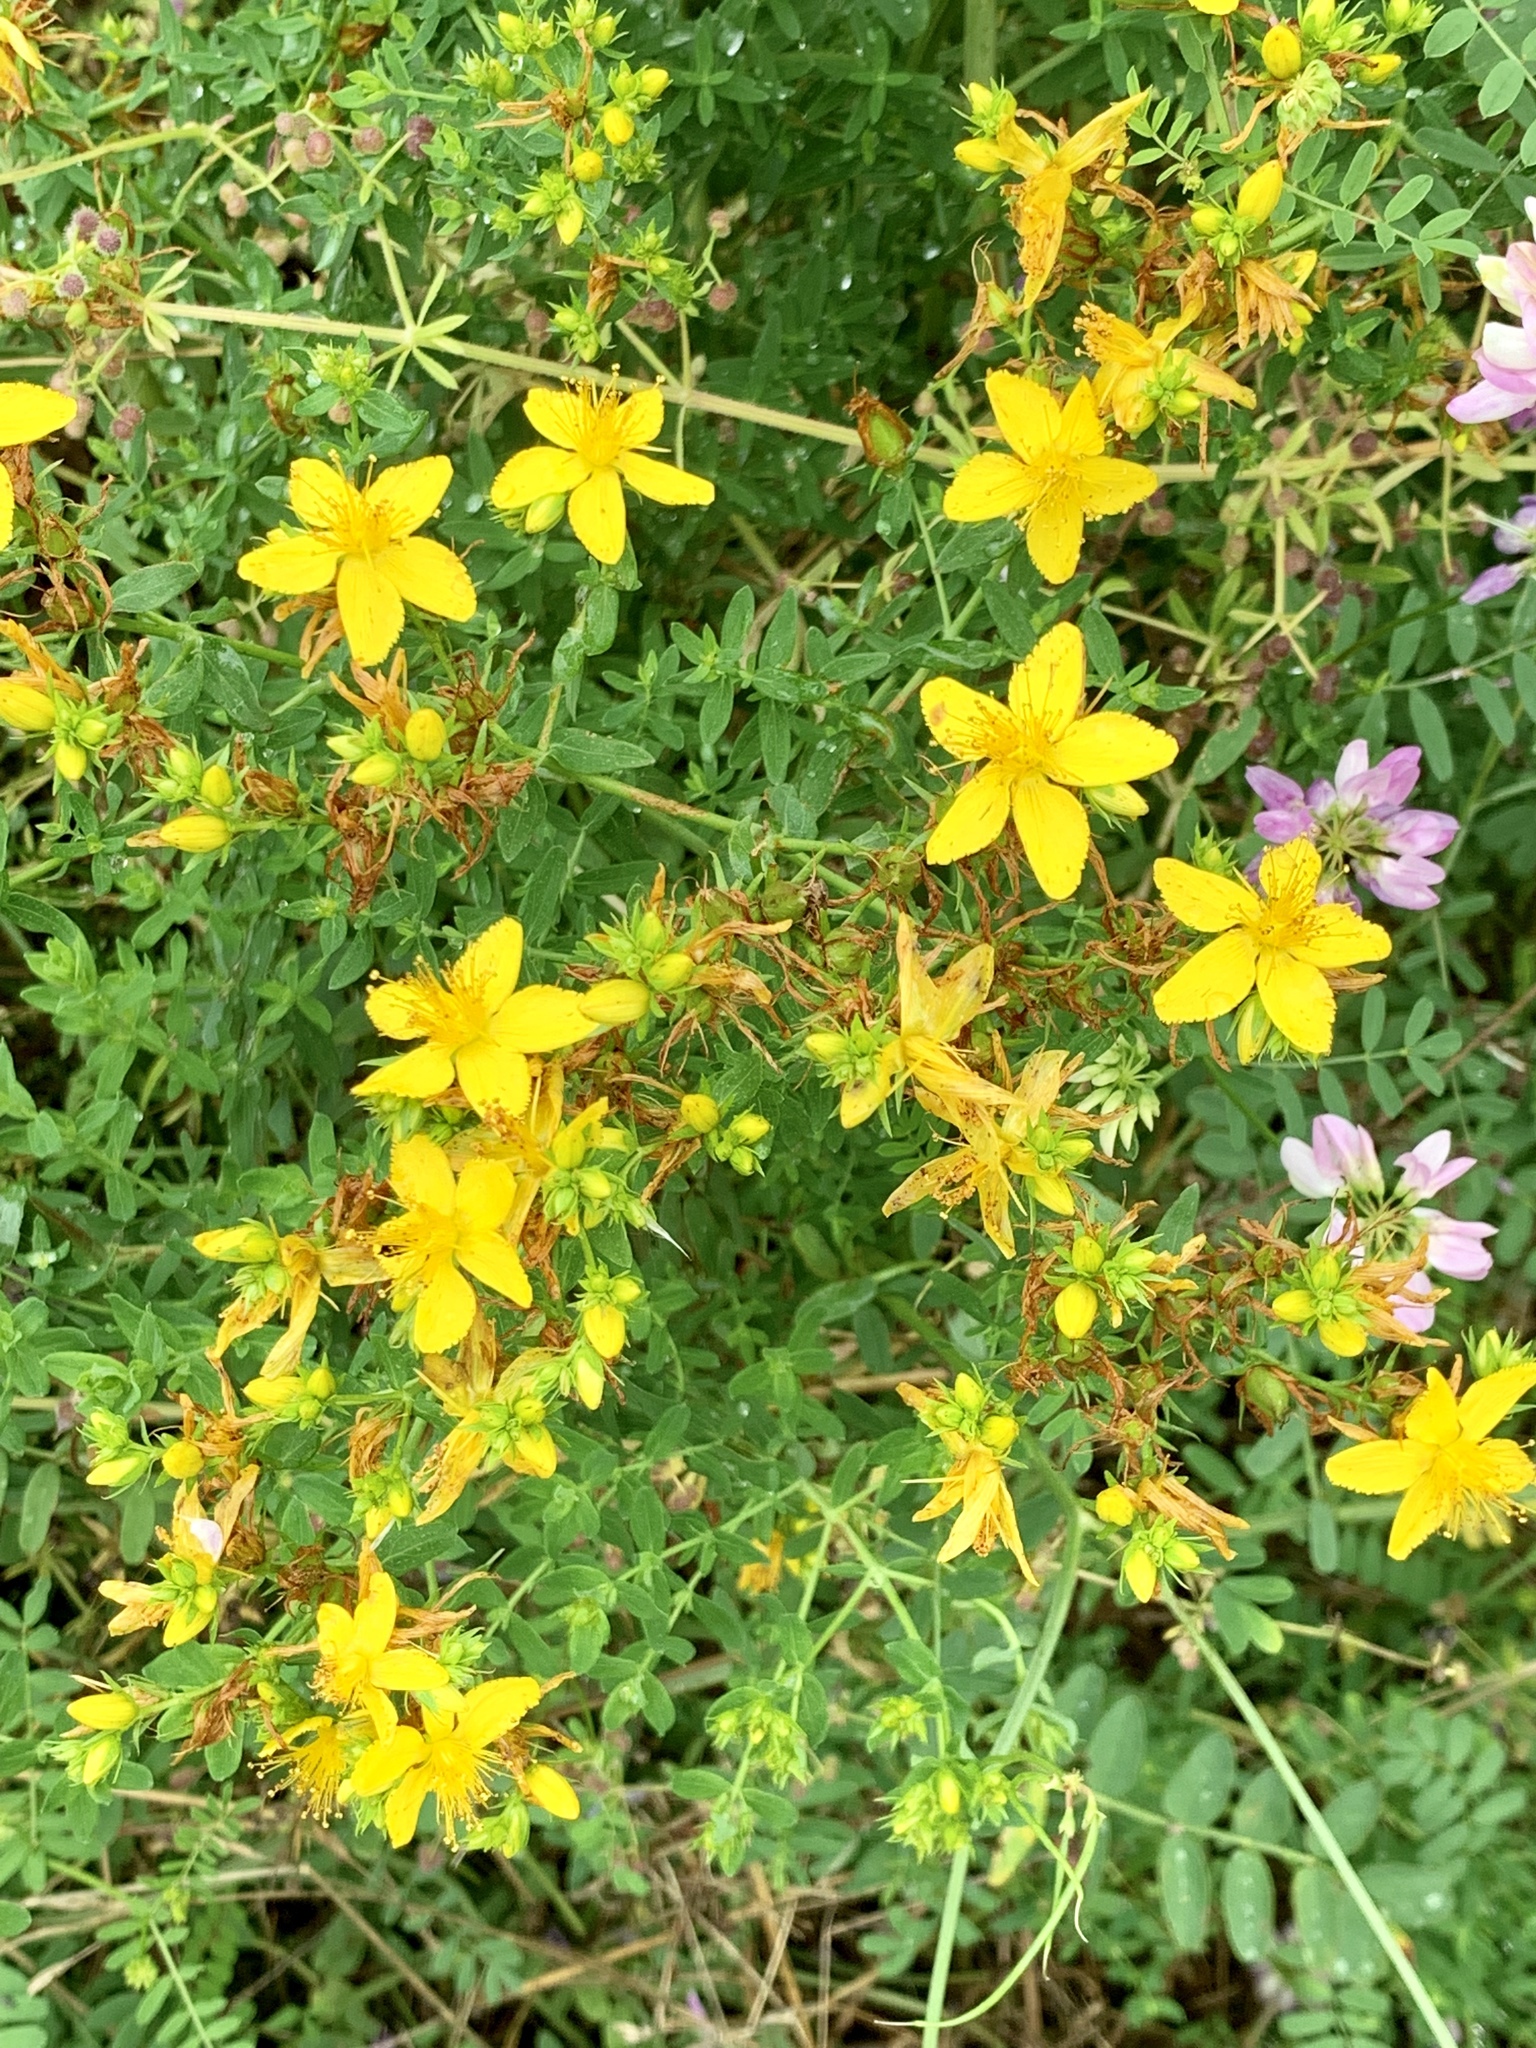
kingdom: Plantae
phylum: Tracheophyta
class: Magnoliopsida
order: Malpighiales
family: Hypericaceae
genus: Hypericum
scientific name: Hypericum perforatum
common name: Common st. johnswort
